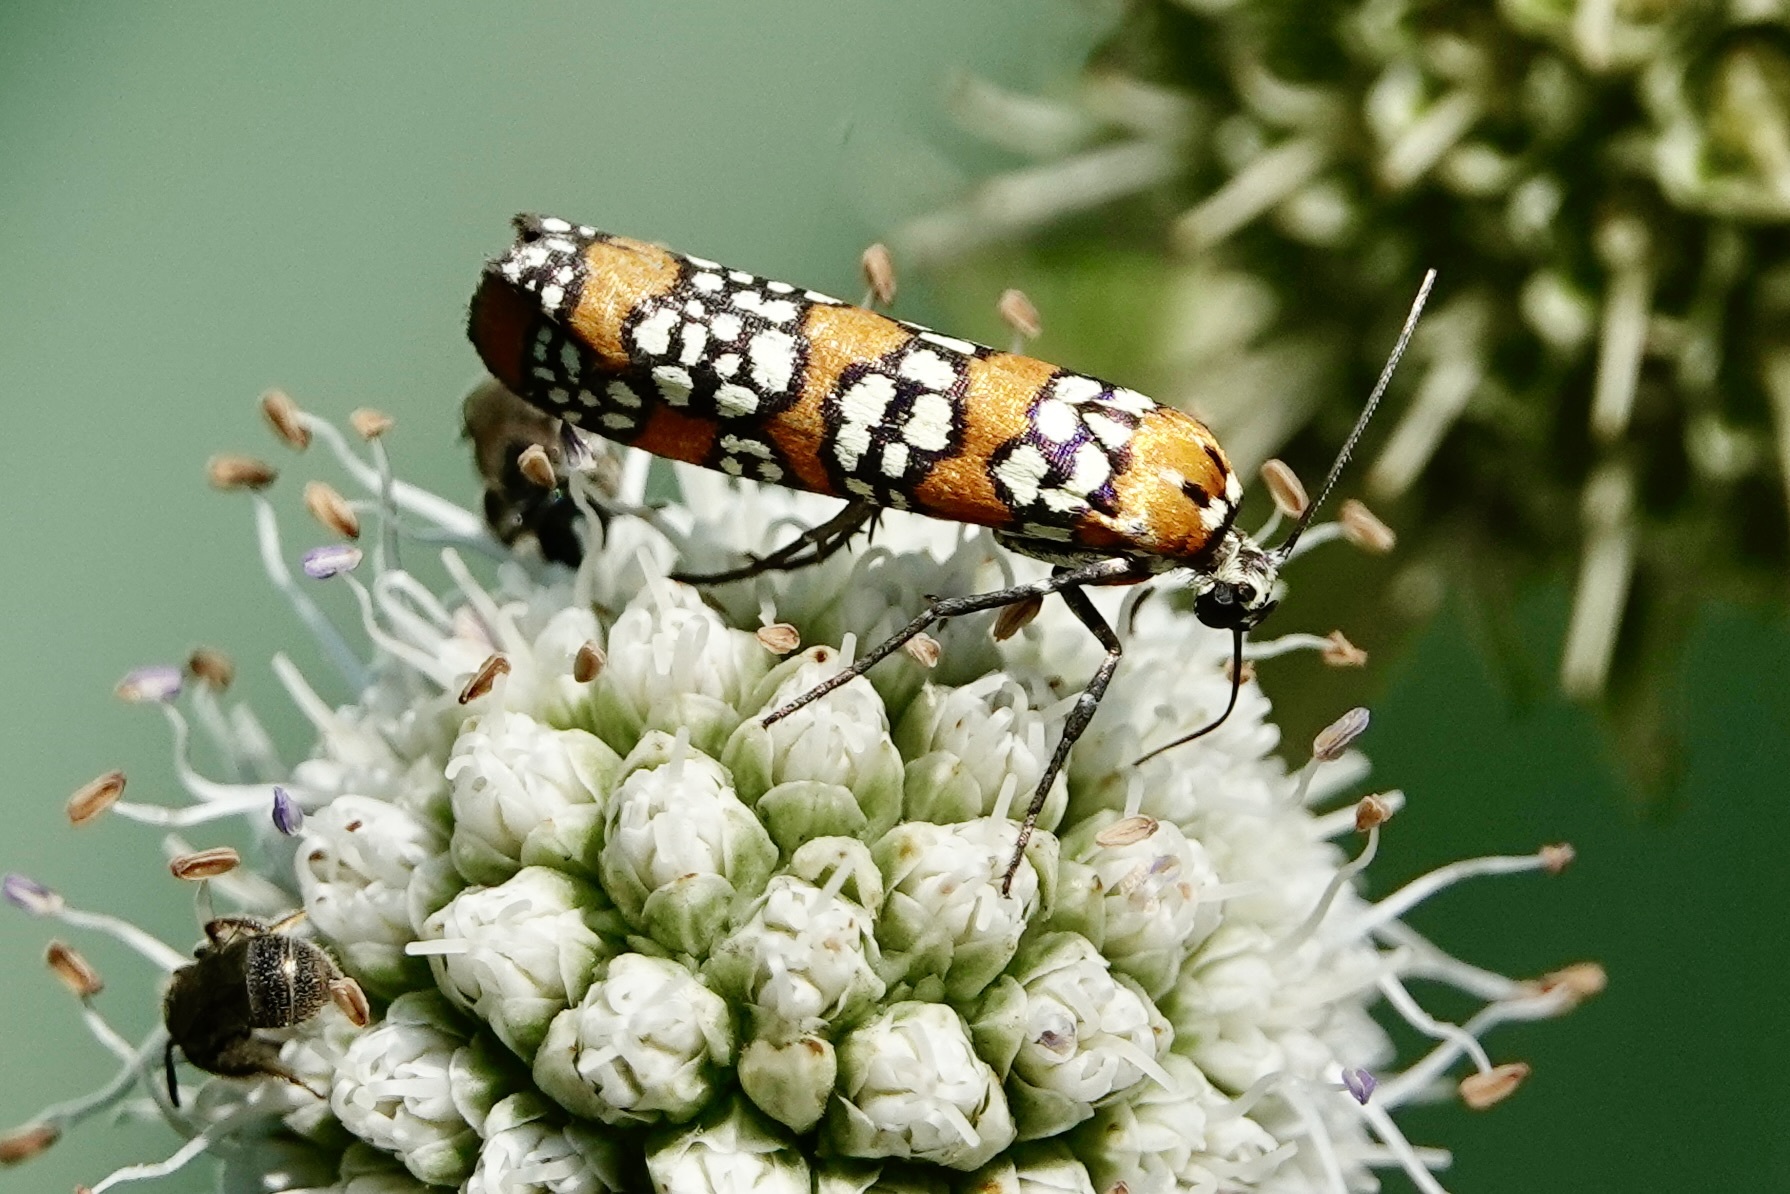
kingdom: Animalia
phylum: Arthropoda
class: Insecta
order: Lepidoptera
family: Attevidae
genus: Atteva
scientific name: Atteva punctella
